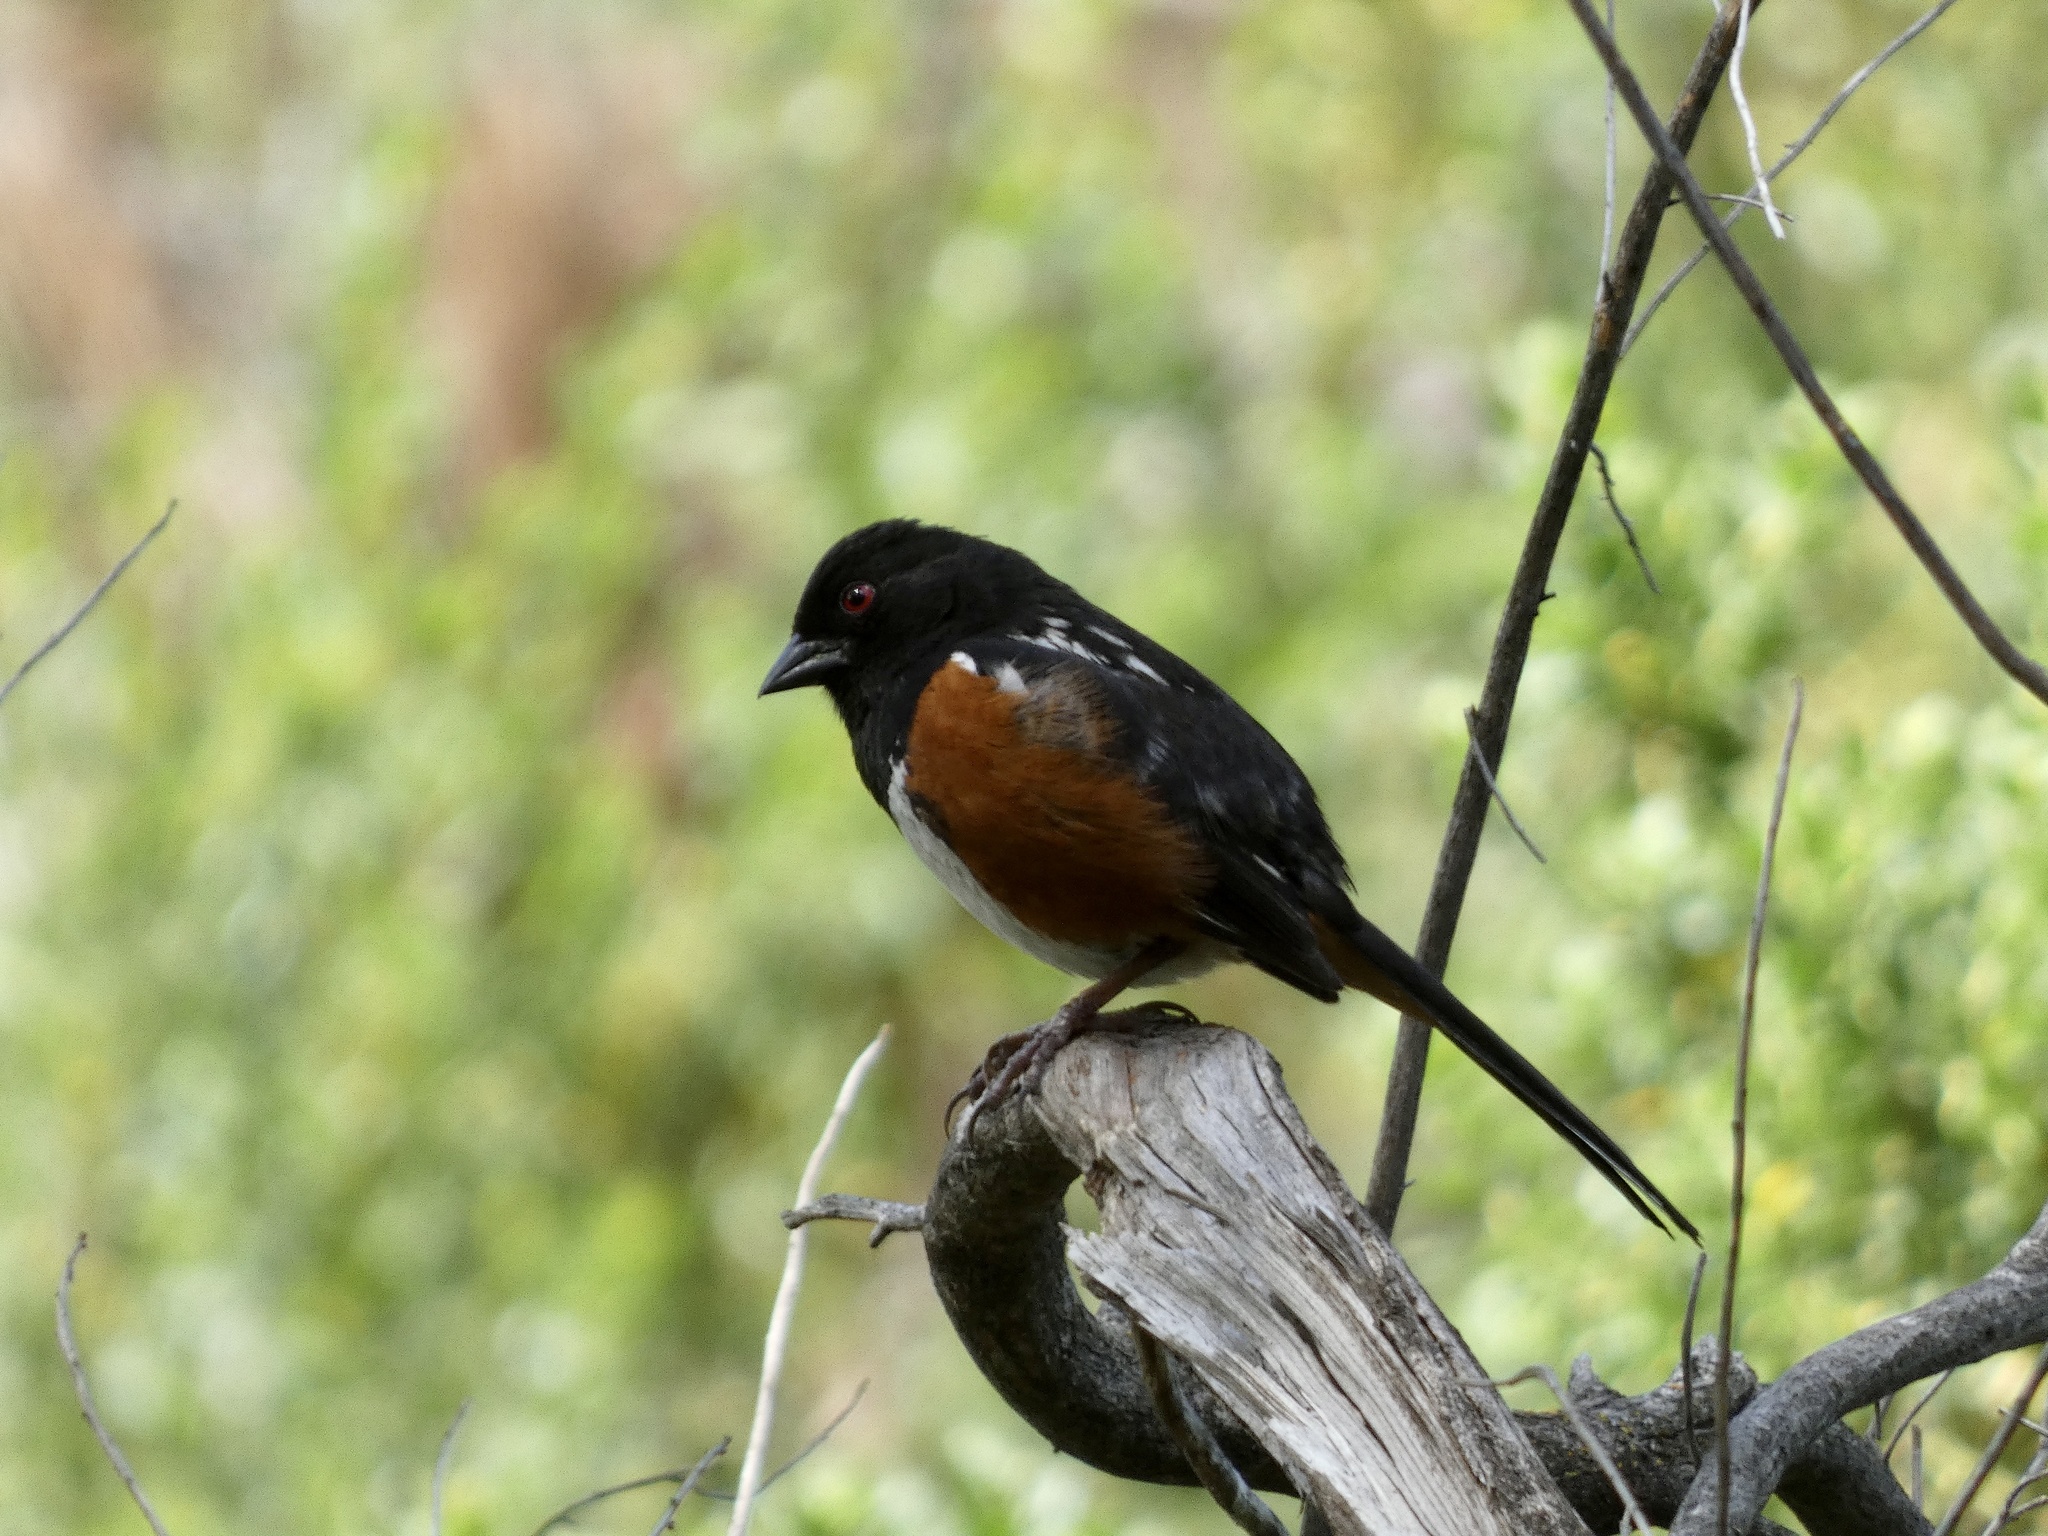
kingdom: Animalia
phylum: Chordata
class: Aves
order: Passeriformes
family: Passerellidae
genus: Pipilo
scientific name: Pipilo maculatus
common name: Spotted towhee
